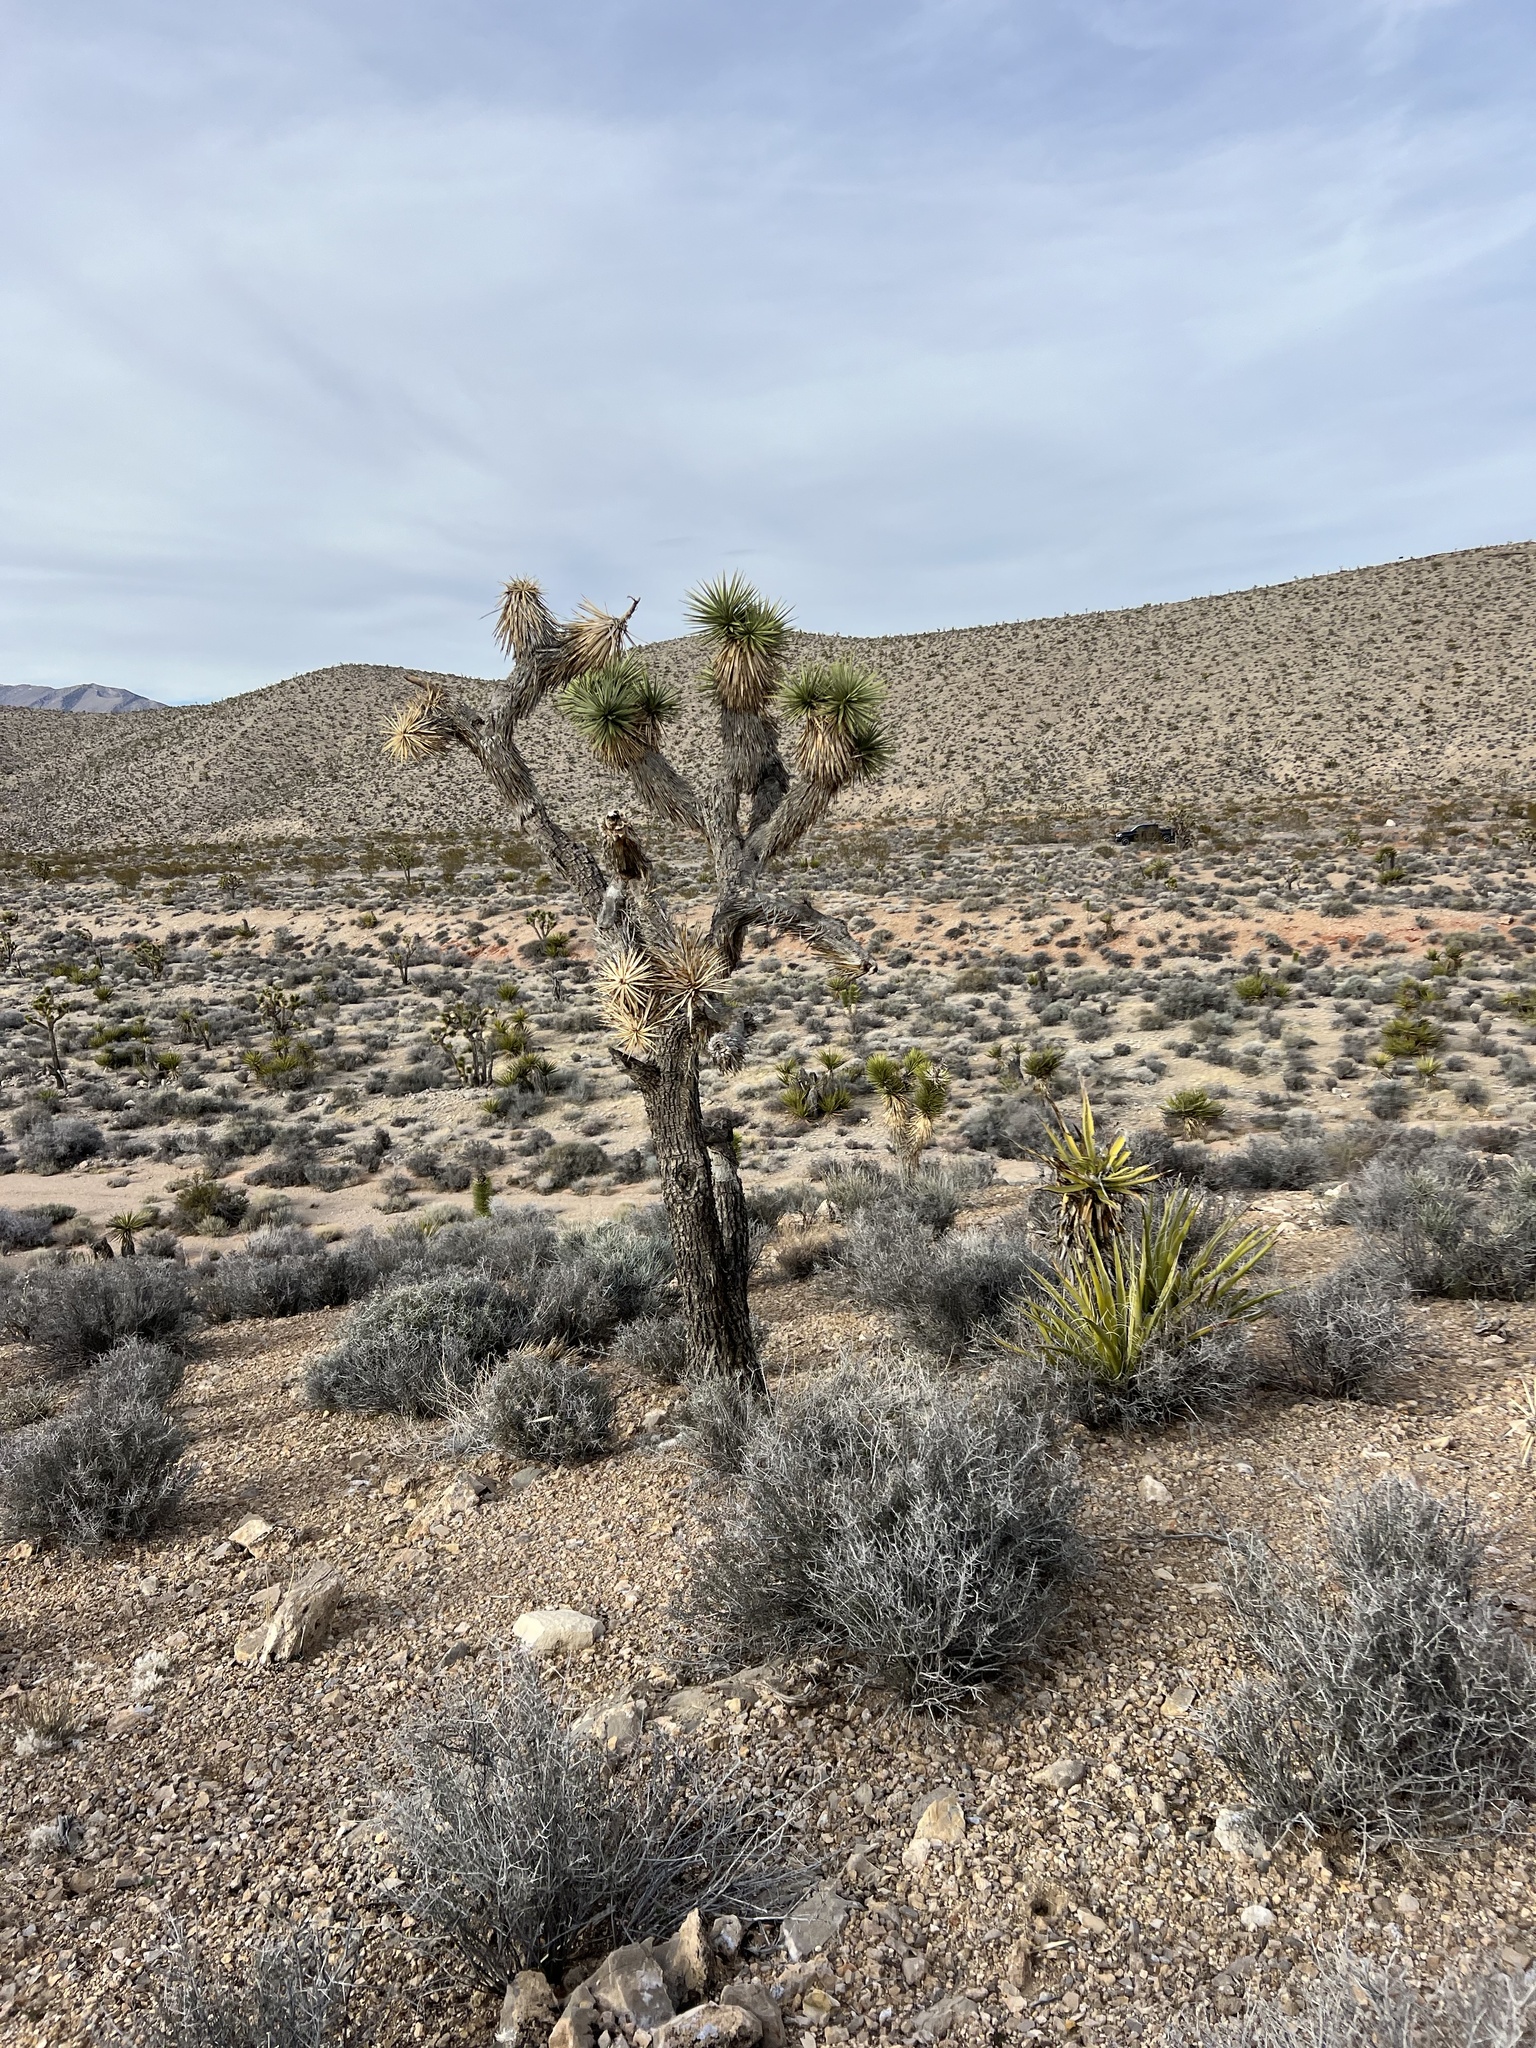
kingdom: Plantae
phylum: Tracheophyta
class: Liliopsida
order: Asparagales
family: Asparagaceae
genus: Yucca
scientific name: Yucca brevifolia
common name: Joshua tree
